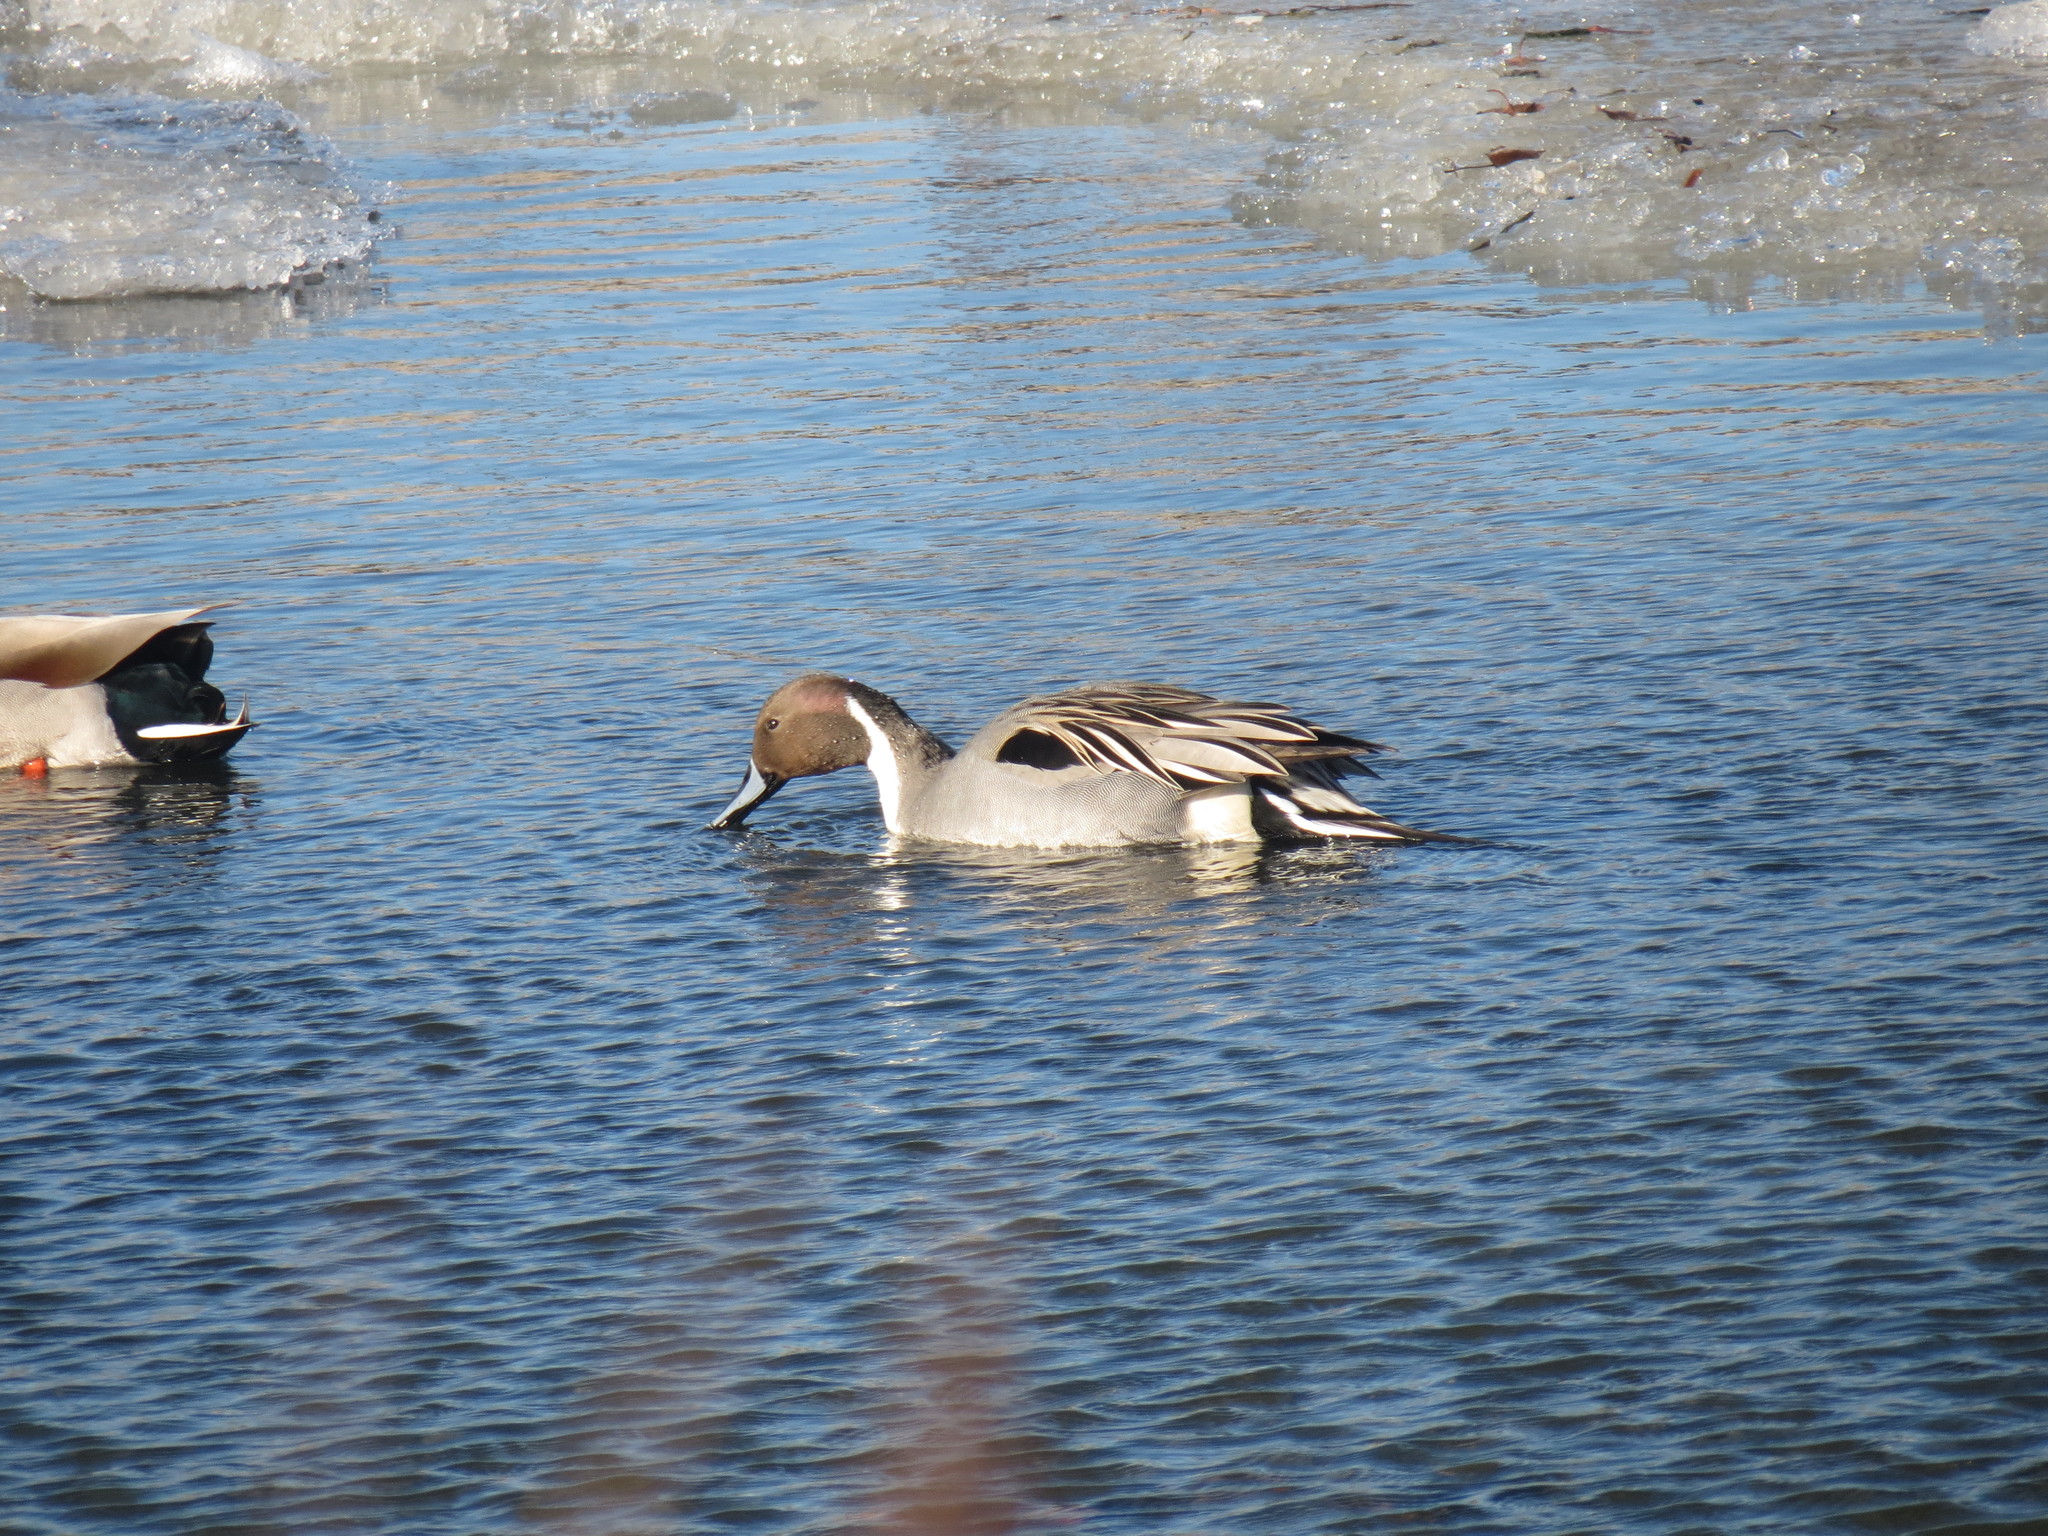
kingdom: Animalia
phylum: Chordata
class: Aves
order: Anseriformes
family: Anatidae
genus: Anas
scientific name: Anas acuta
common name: Northern pintail
